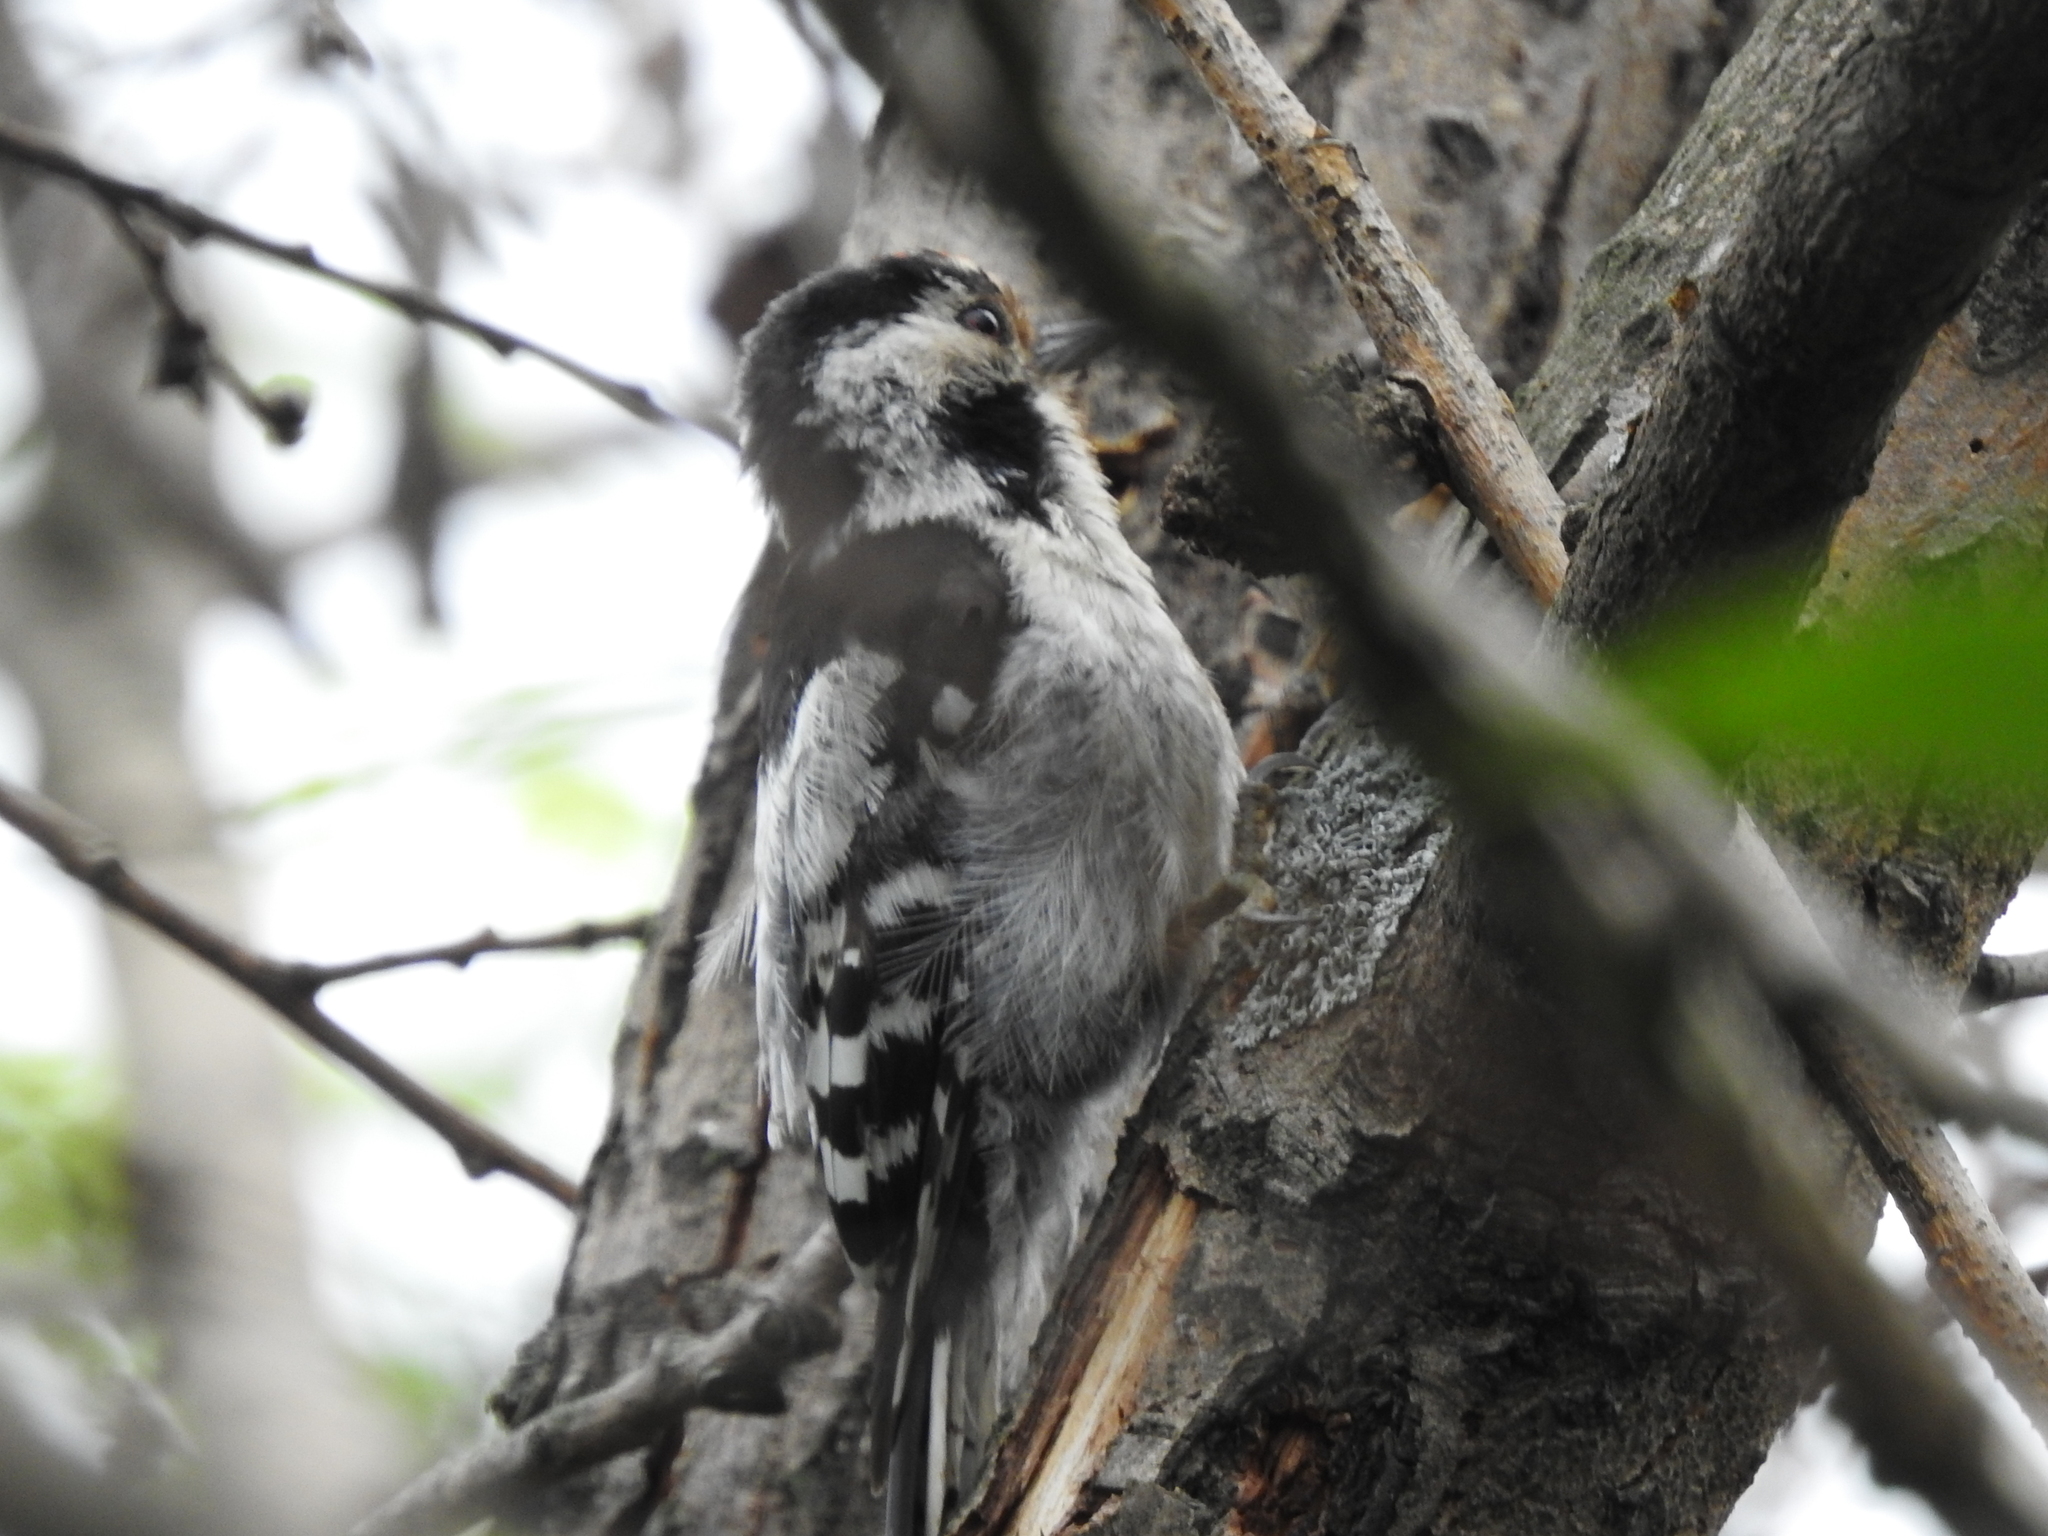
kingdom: Animalia
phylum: Chordata
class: Aves
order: Piciformes
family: Picidae
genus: Dryobates
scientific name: Dryobates minor
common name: Lesser spotted woodpecker
